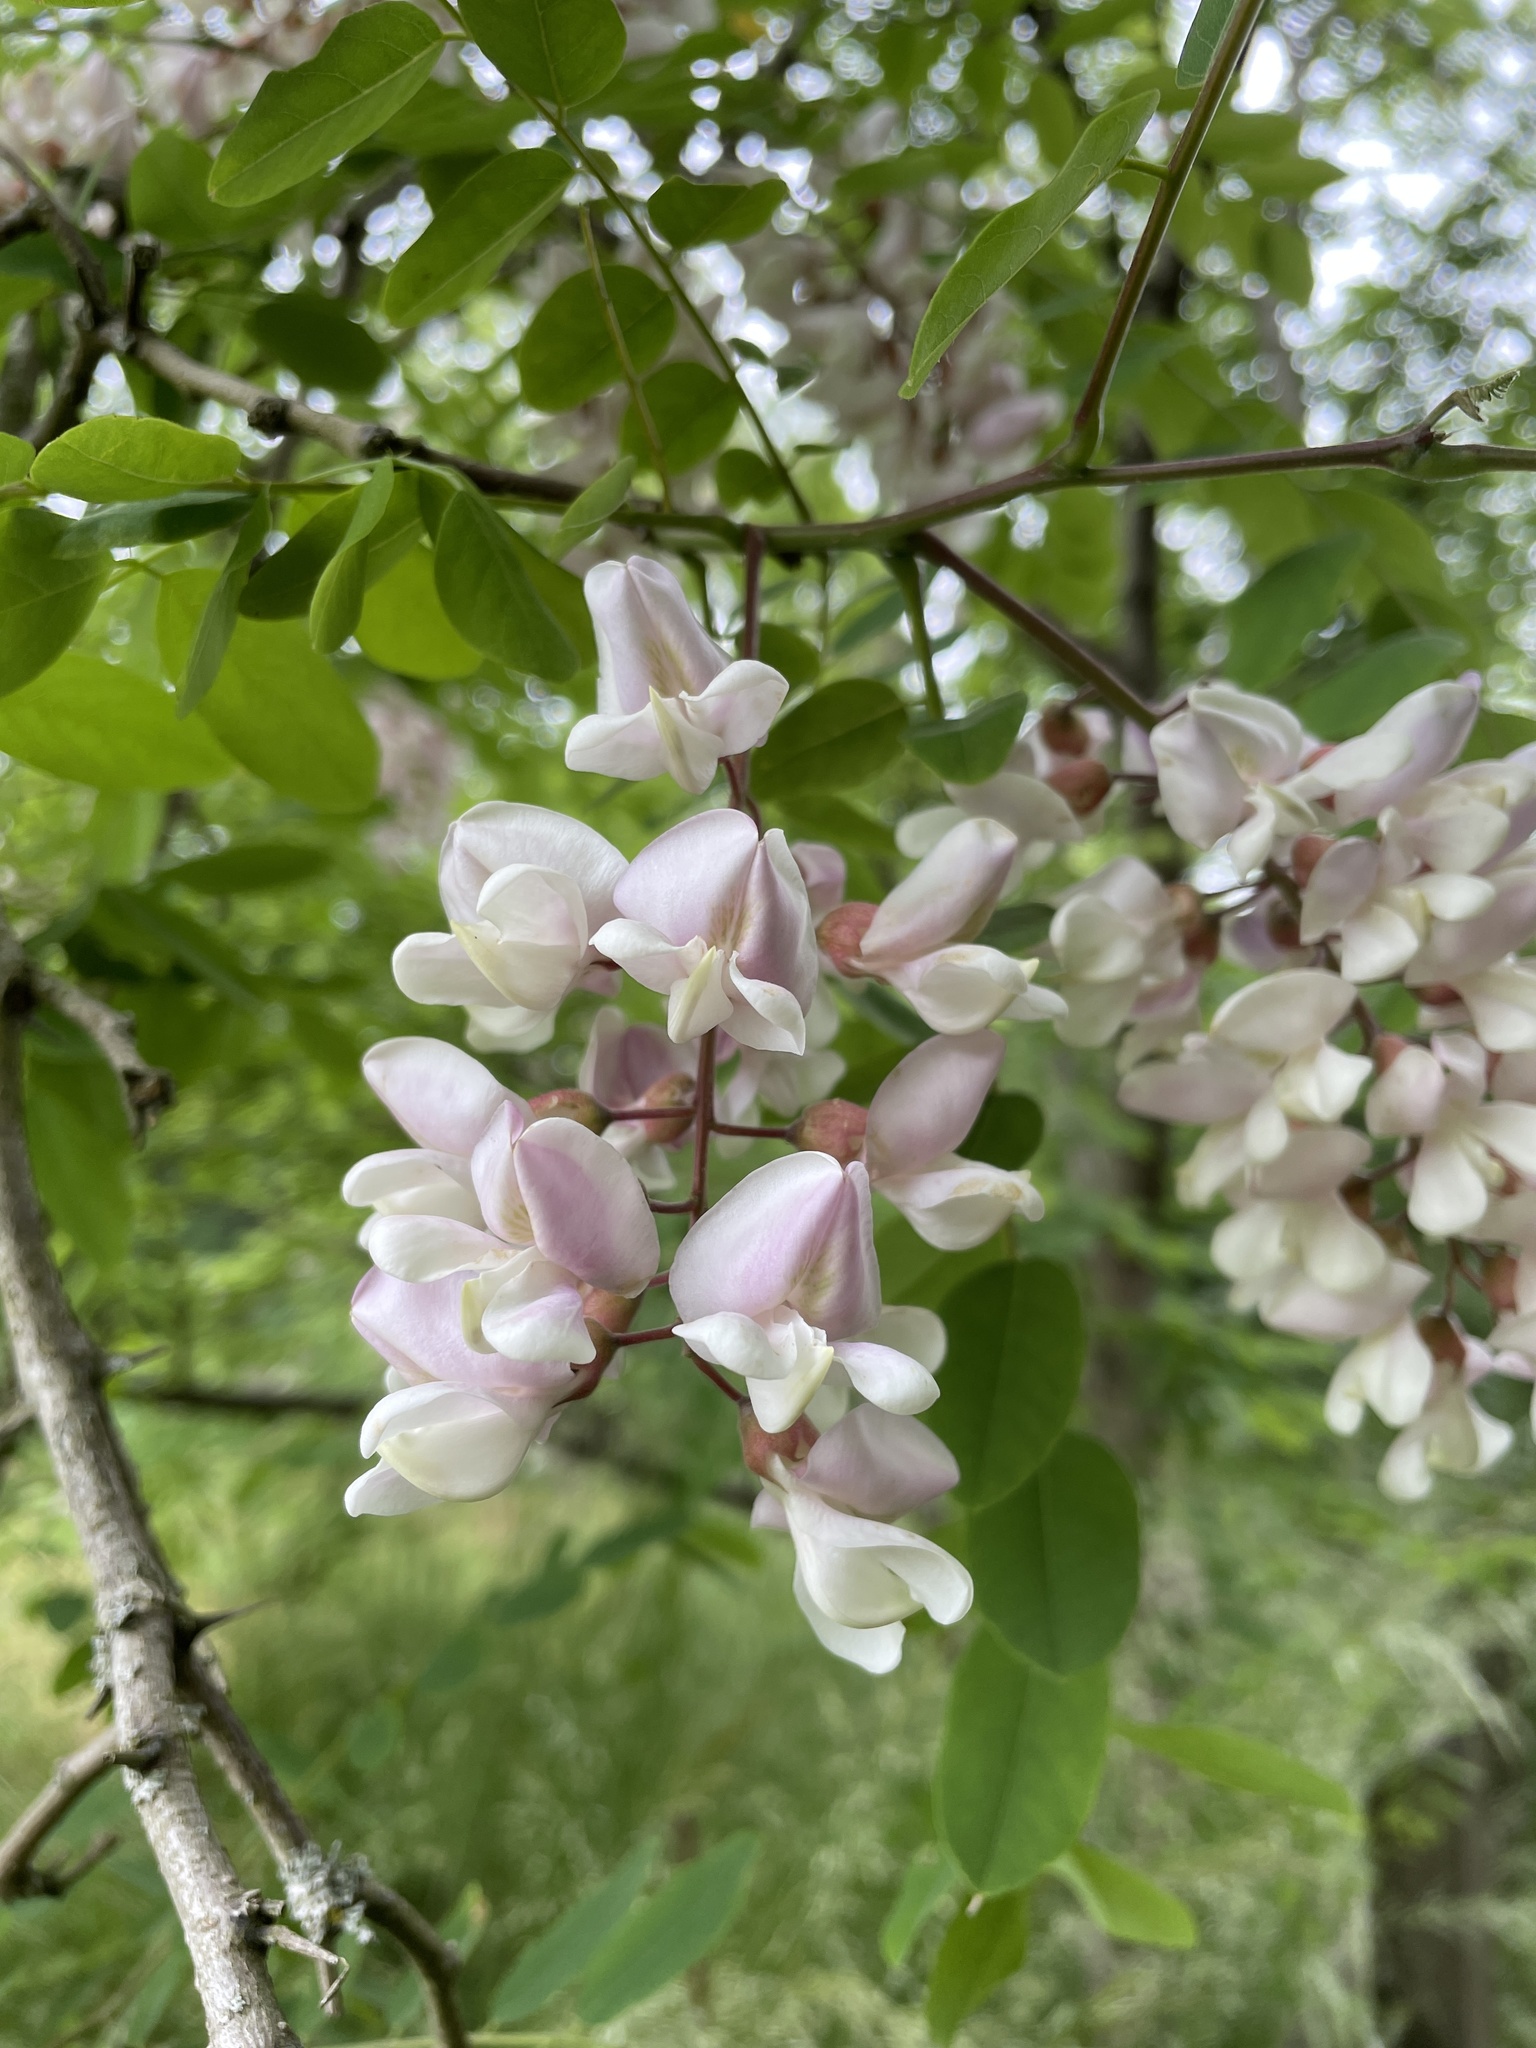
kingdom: Plantae
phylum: Tracheophyta
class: Magnoliopsida
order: Fabales
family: Fabaceae
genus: Robinia
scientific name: Robinia pseudoacacia
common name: Black locust
